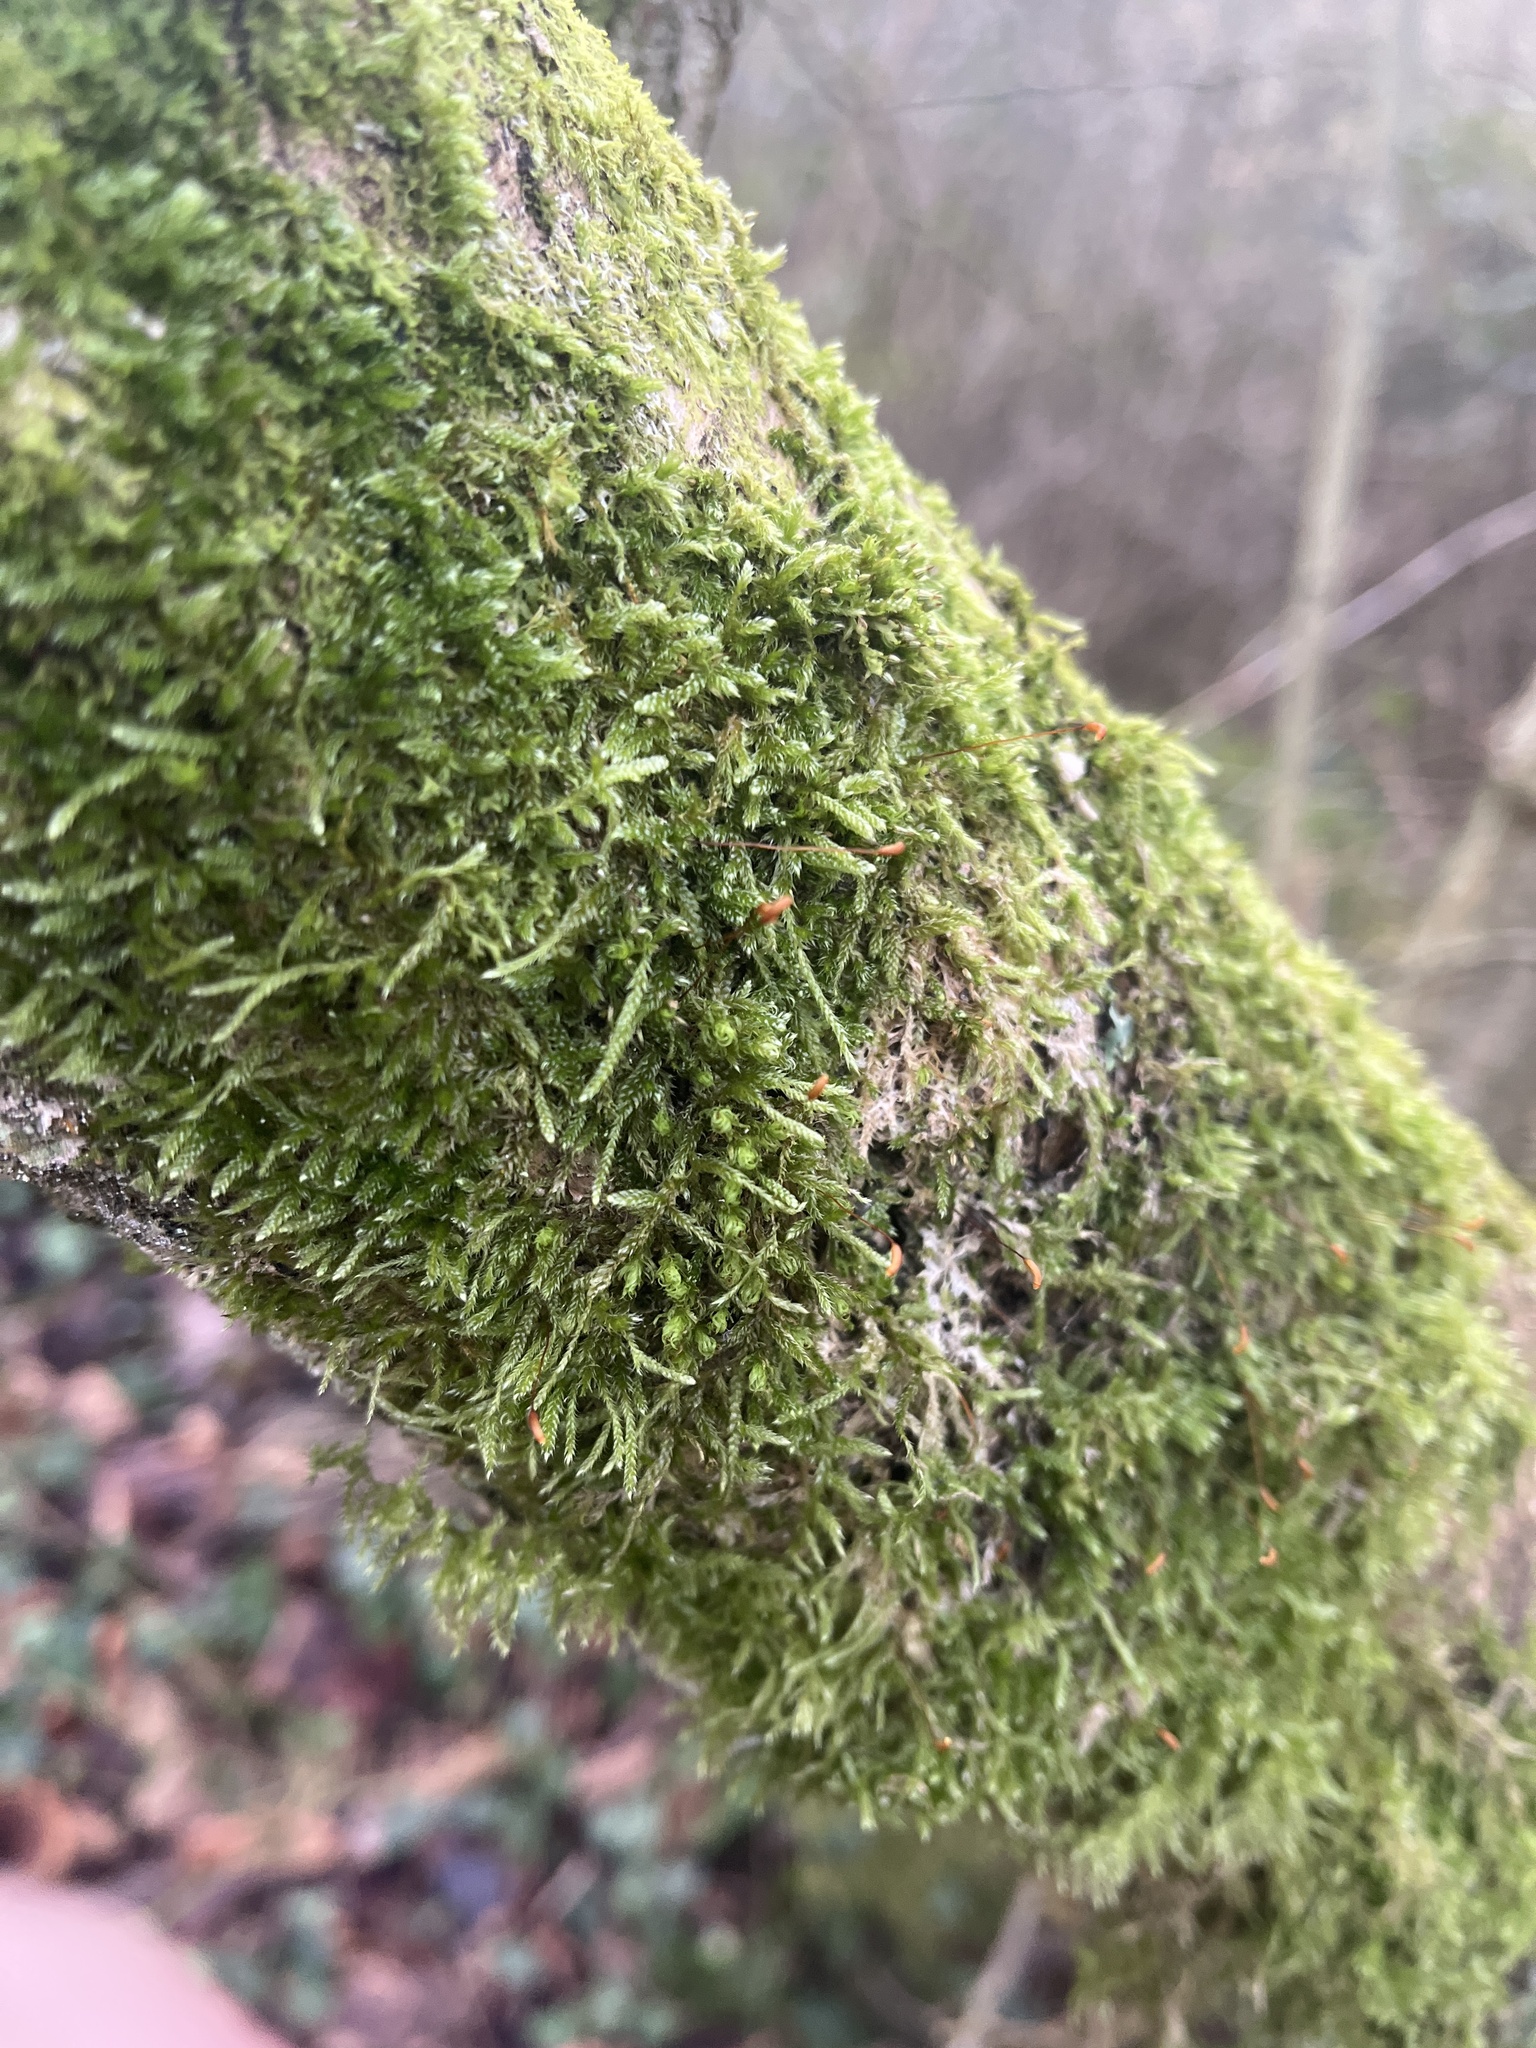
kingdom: Plantae
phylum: Bryophyta
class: Bryopsida
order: Hypnales
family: Hypnaceae
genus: Hypnum
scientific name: Hypnum cupressiforme
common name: Cypress-leaved plait-moss
